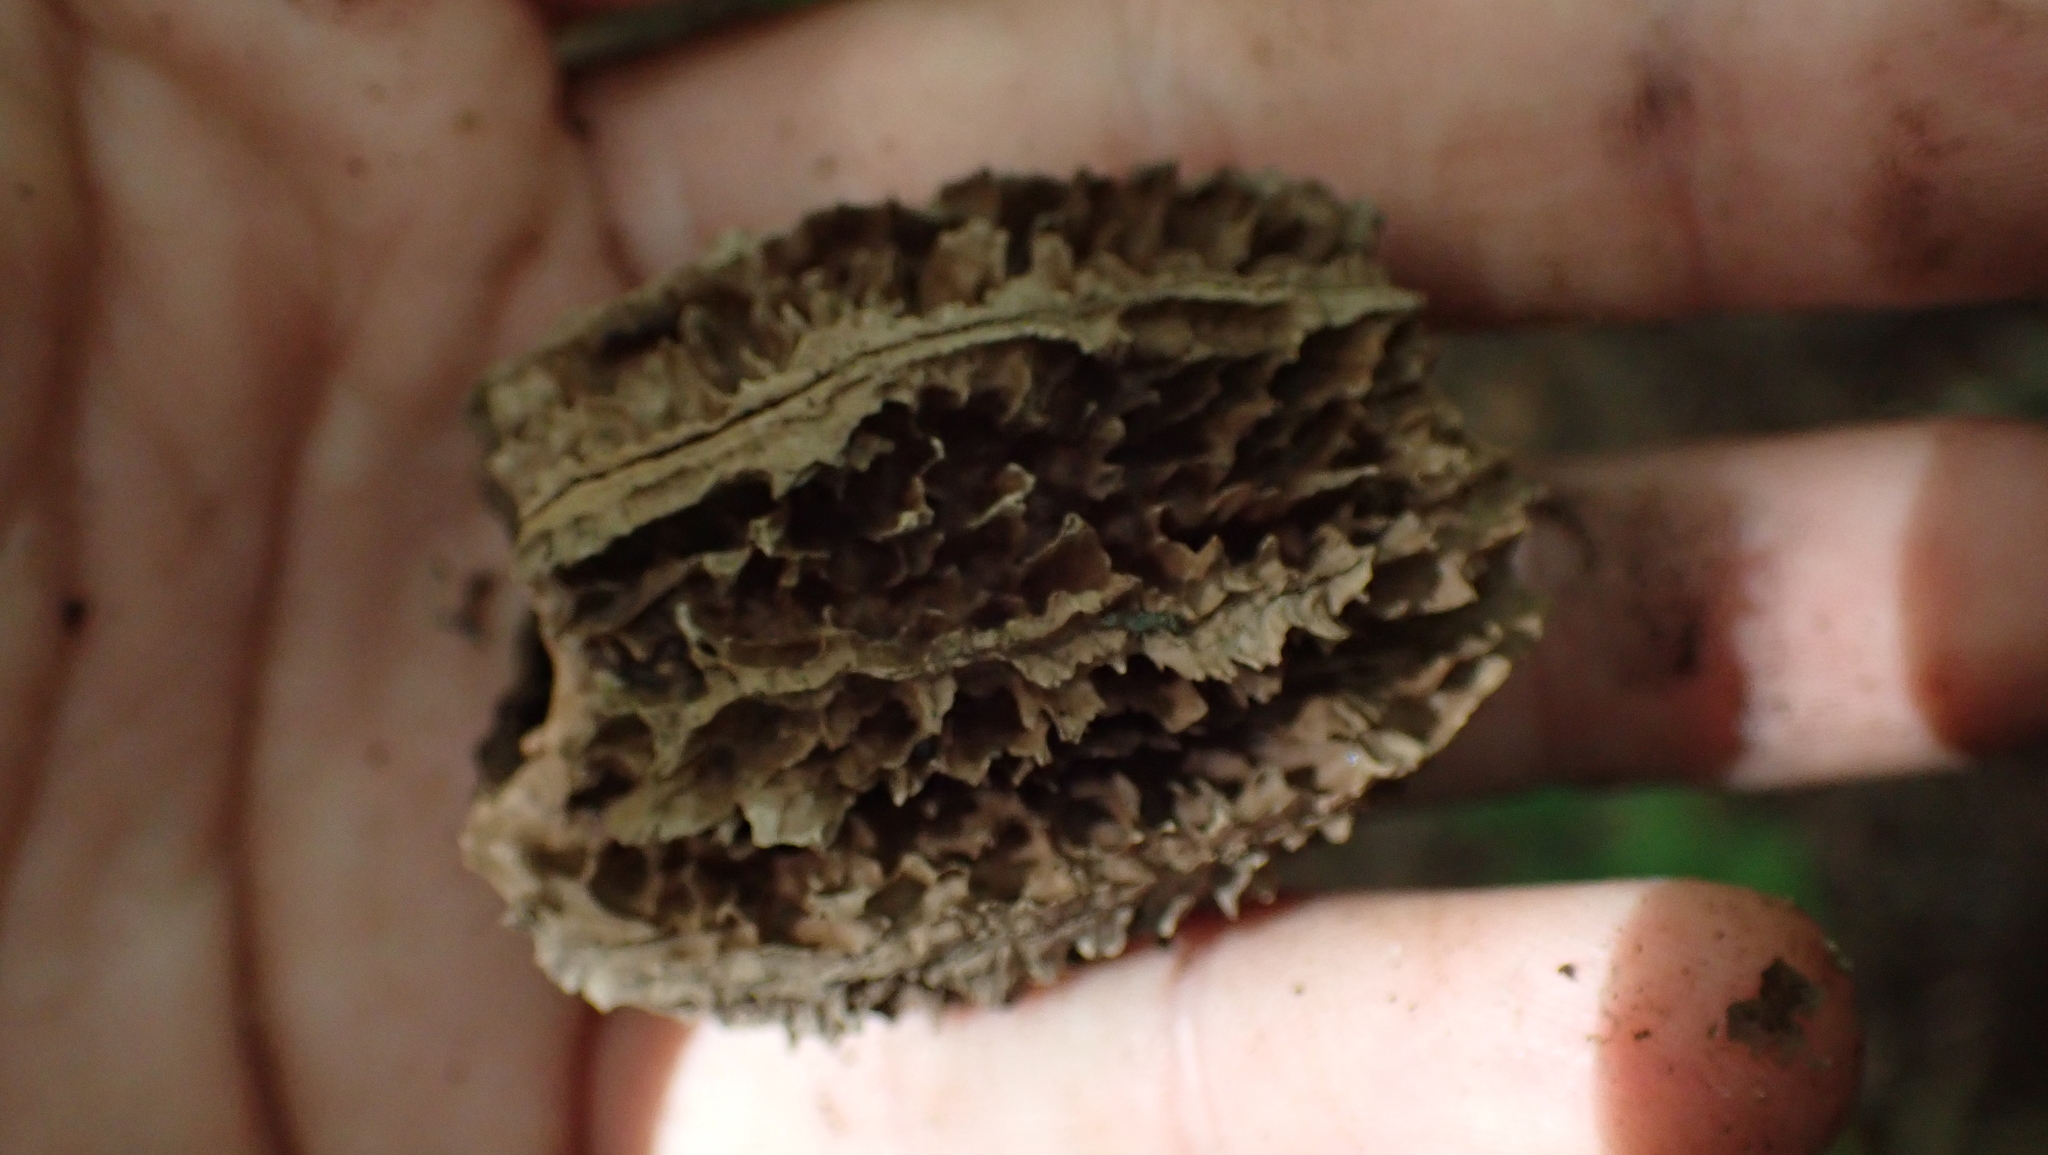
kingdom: Plantae
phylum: Tracheophyta
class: Magnoliopsida
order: Fagales
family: Juglandaceae
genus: Juglans
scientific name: Juglans cinerea
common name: Butternut
